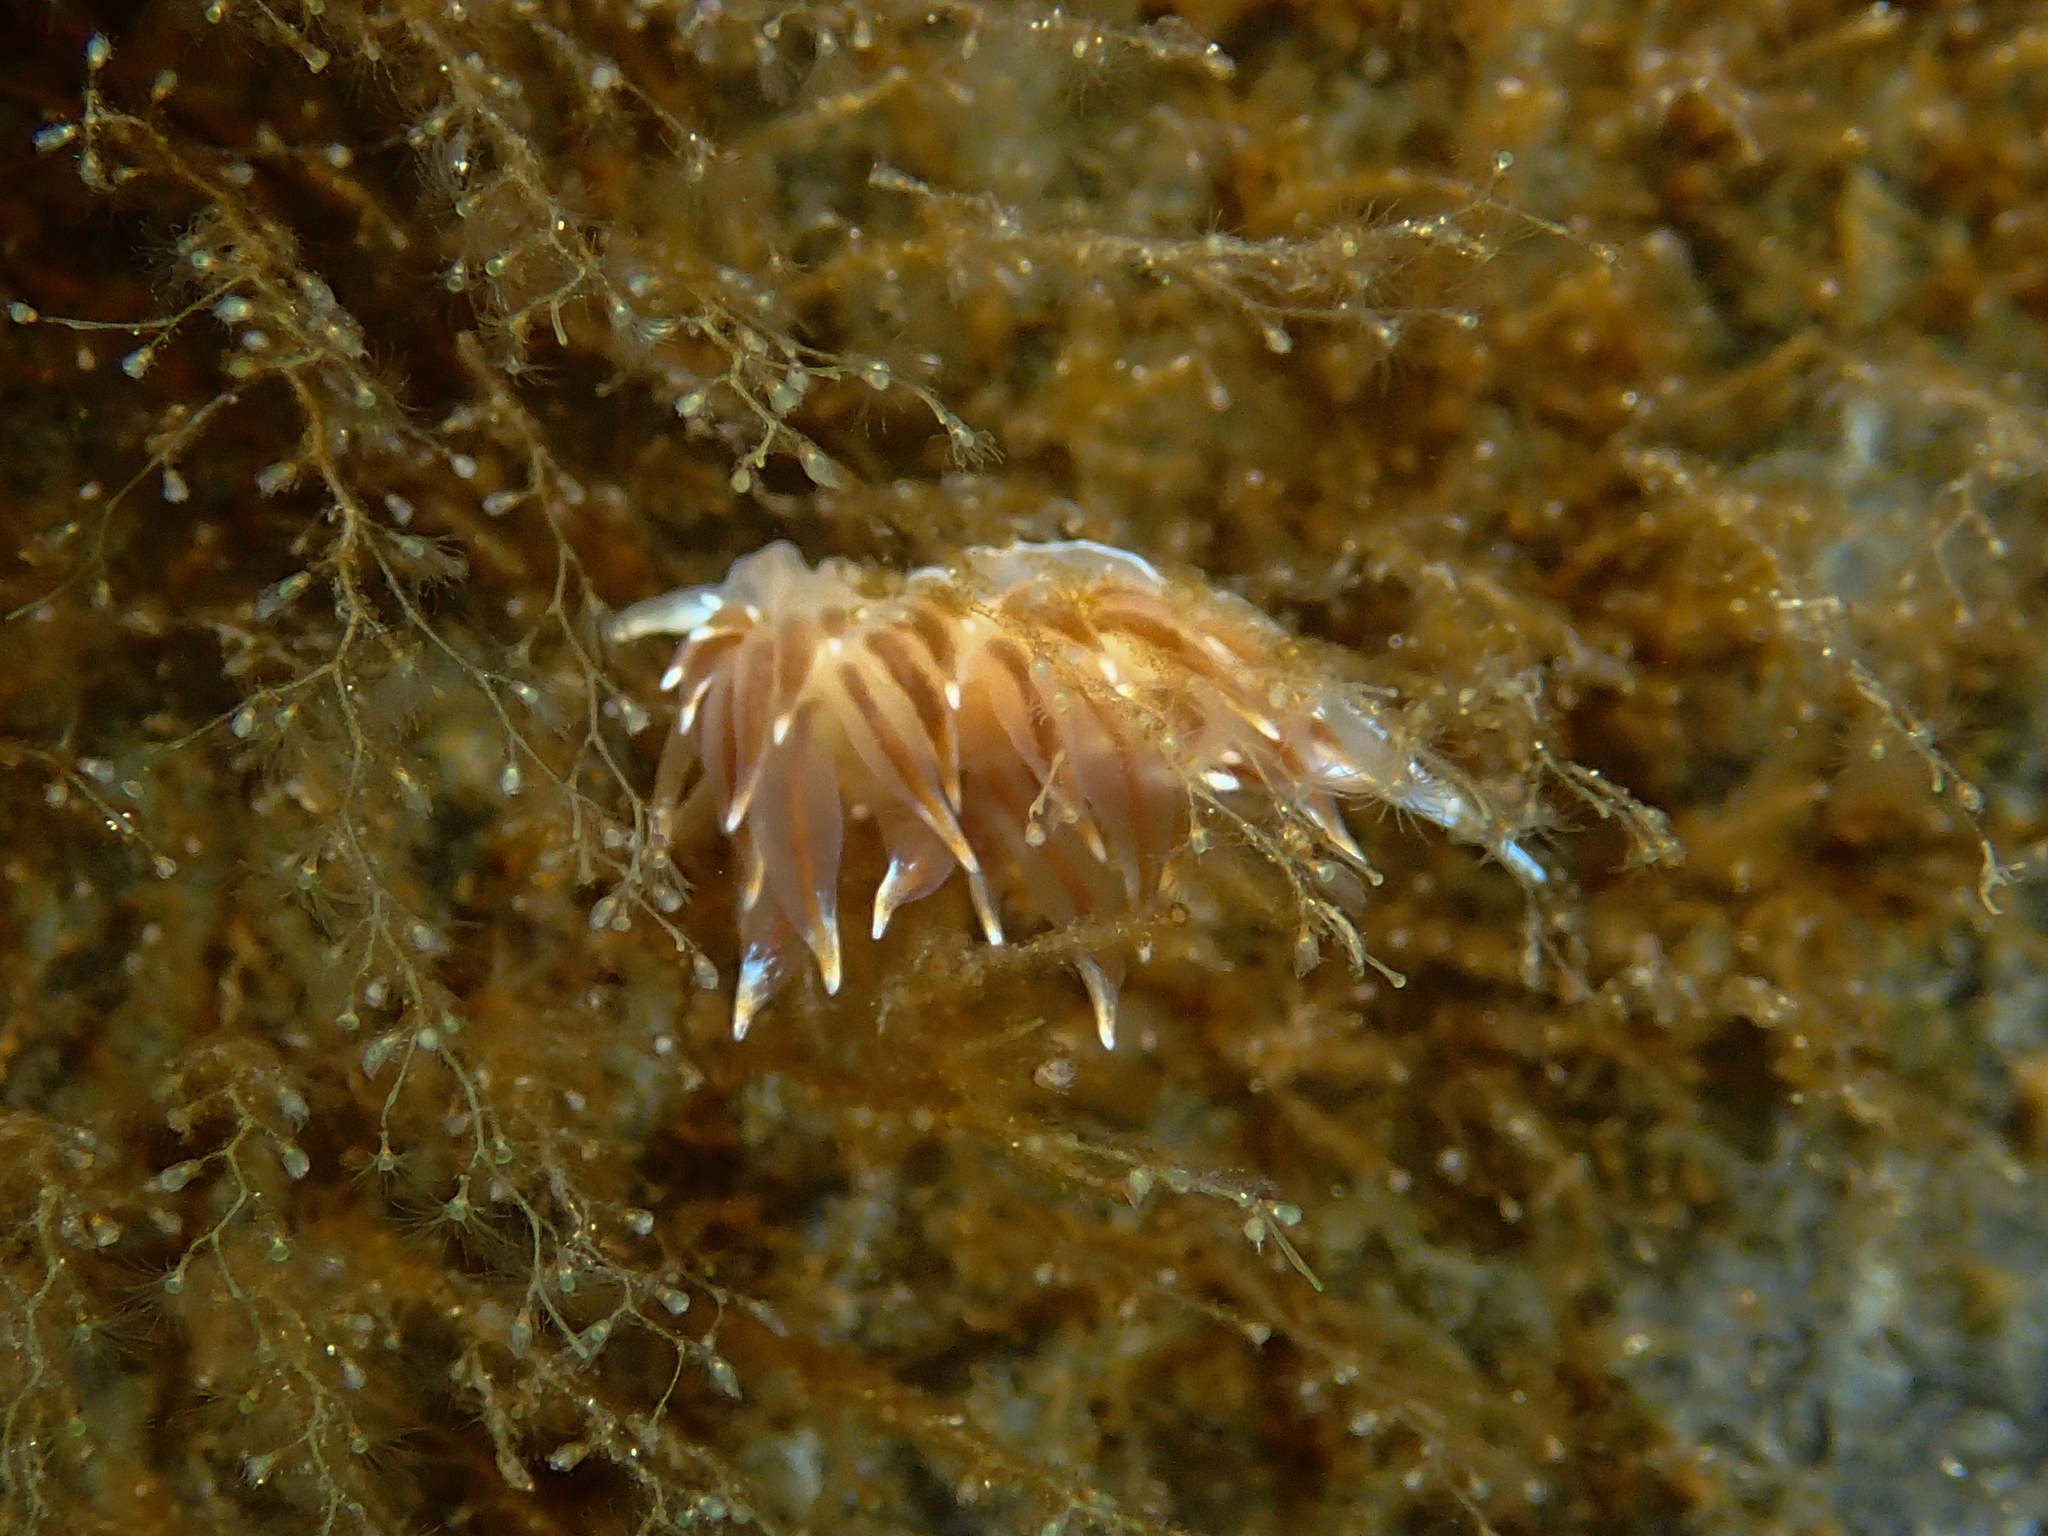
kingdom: Animalia
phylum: Mollusca
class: Gastropoda
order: Nudibranchia
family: Eubranchidae
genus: Amphorina
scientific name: Amphorina linensis
